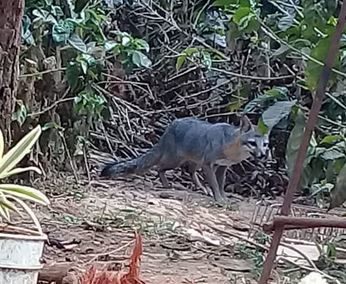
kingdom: Animalia
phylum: Chordata
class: Mammalia
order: Carnivora
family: Canidae
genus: Urocyon
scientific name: Urocyon cinereoargenteus
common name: Gray fox
